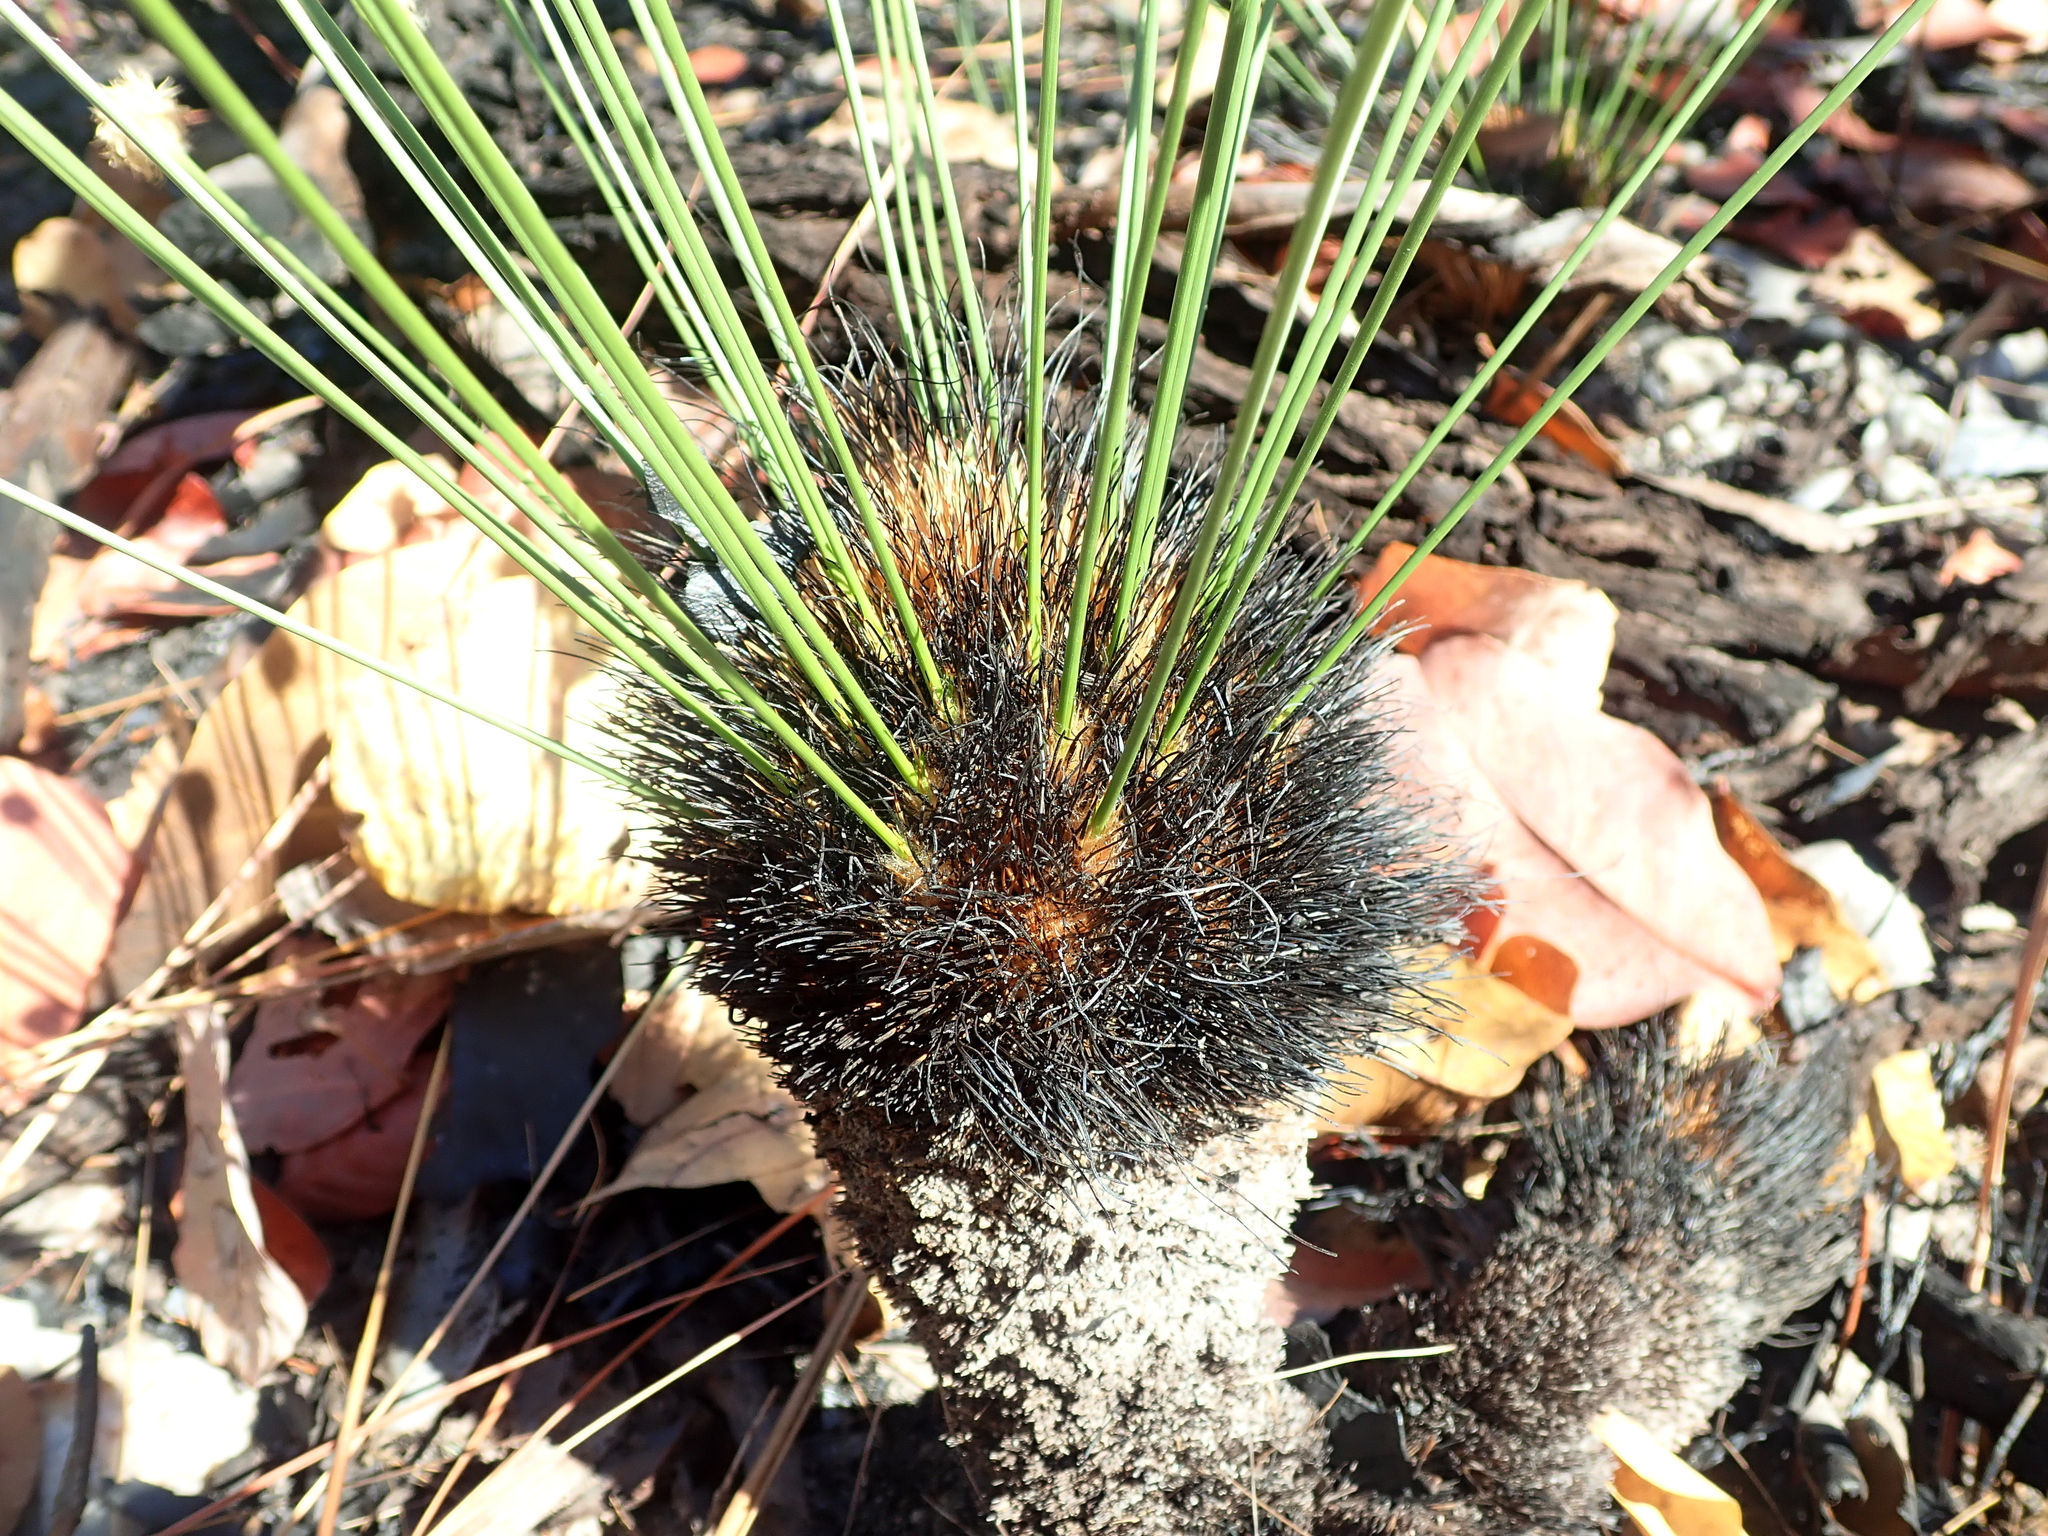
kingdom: Plantae
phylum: Tracheophyta
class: Liliopsida
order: Poales
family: Cyperaceae
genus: Bulbostylis
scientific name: Bulbostylis paradoxa
